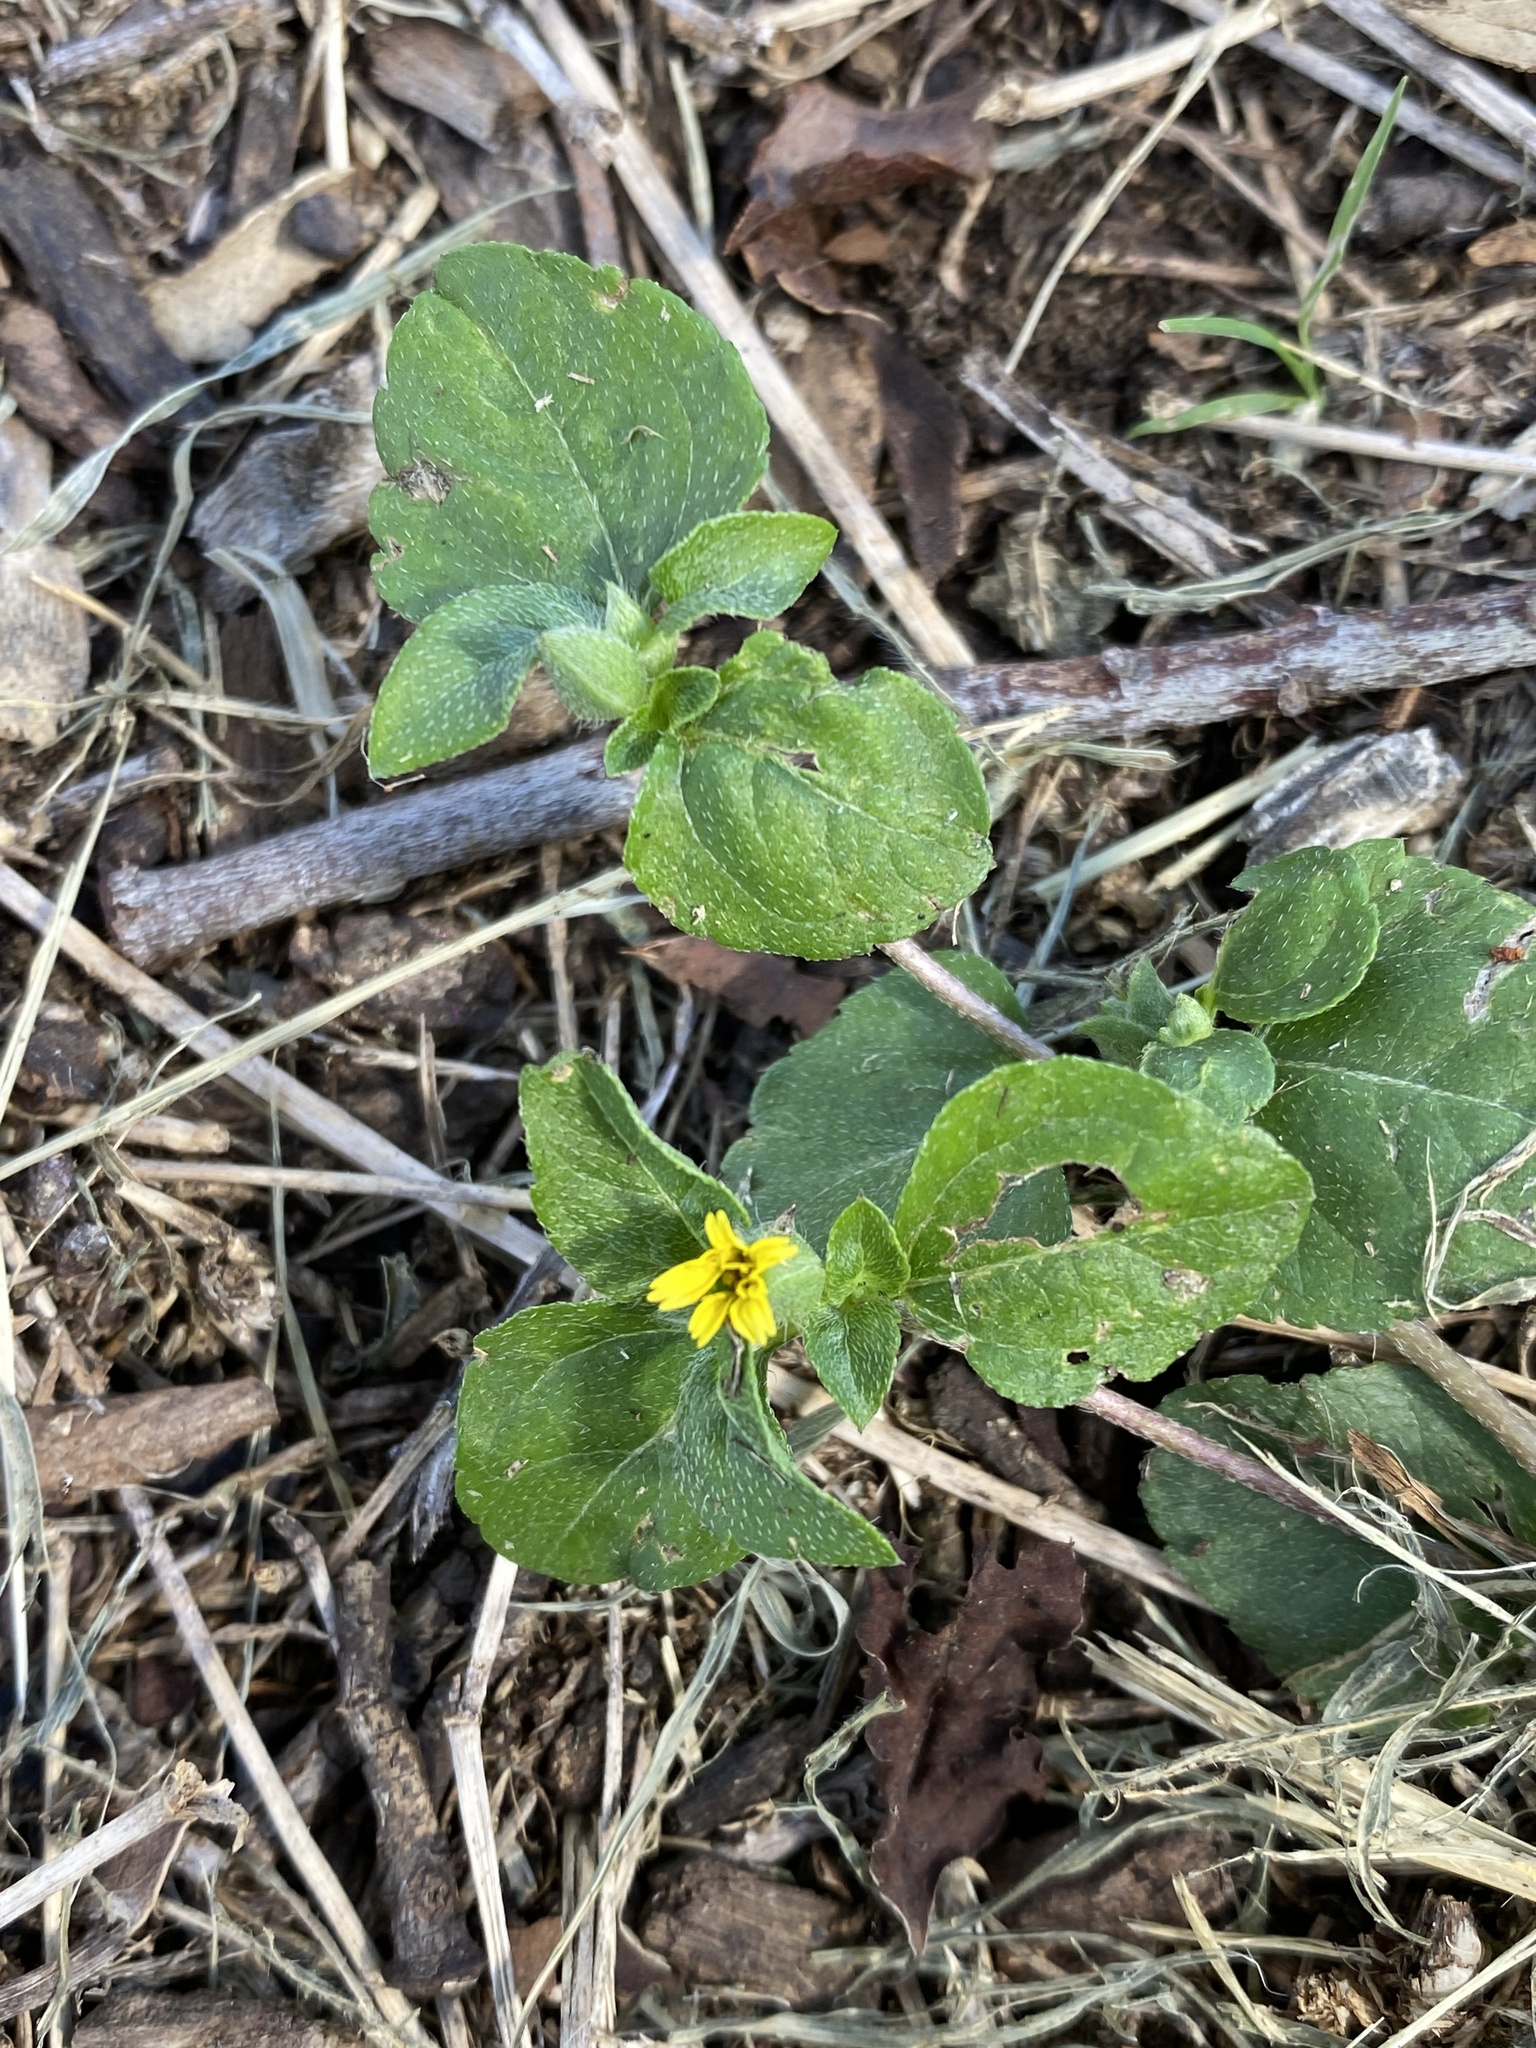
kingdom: Plantae
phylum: Tracheophyta
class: Magnoliopsida
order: Asterales
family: Asteraceae
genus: Calyptocarpus
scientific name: Calyptocarpus vialis
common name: Straggler daisy
